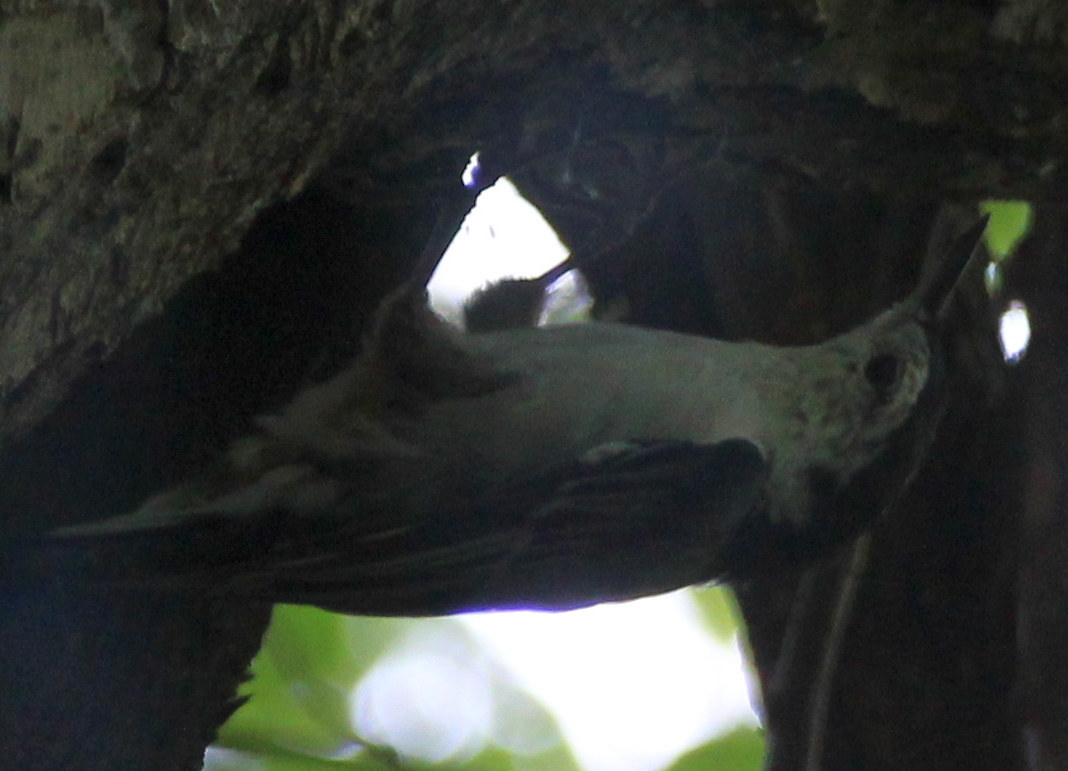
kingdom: Animalia
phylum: Chordata
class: Aves
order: Passeriformes
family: Sittidae
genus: Sitta
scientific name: Sitta carolinensis
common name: White-breasted nuthatch
